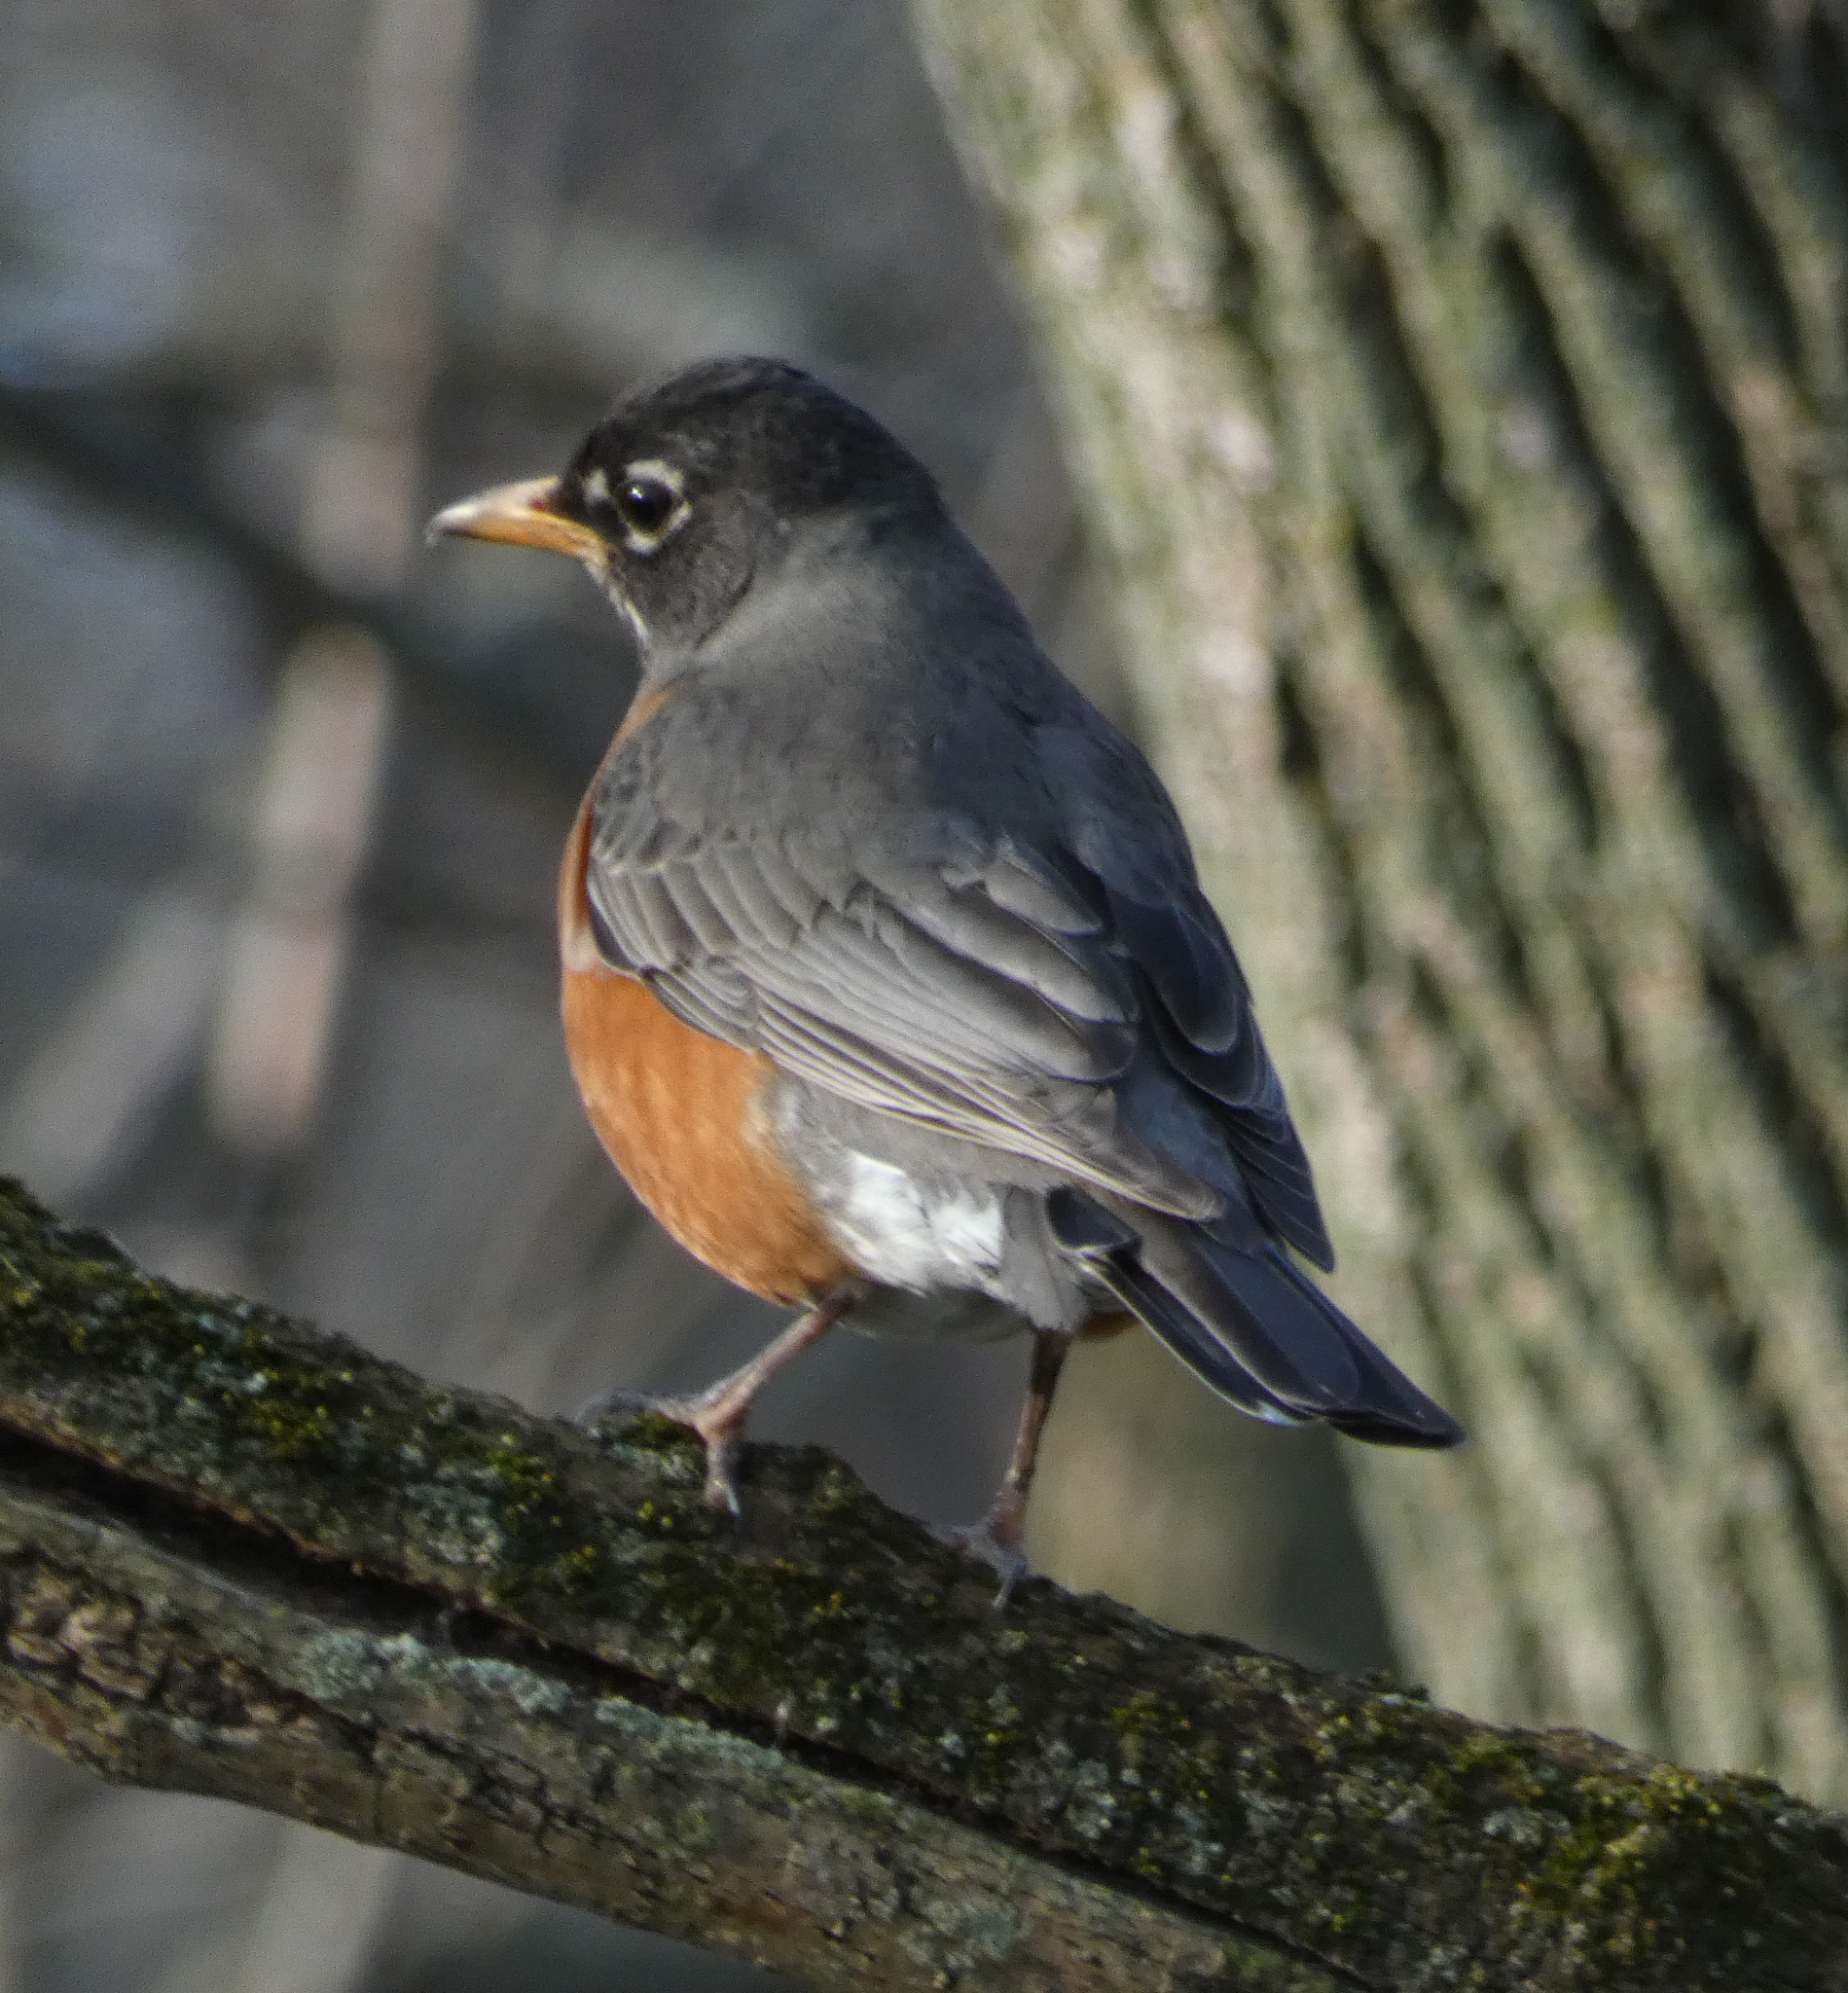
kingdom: Animalia
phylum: Chordata
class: Aves
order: Passeriformes
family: Turdidae
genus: Turdus
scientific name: Turdus migratorius
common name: American robin
